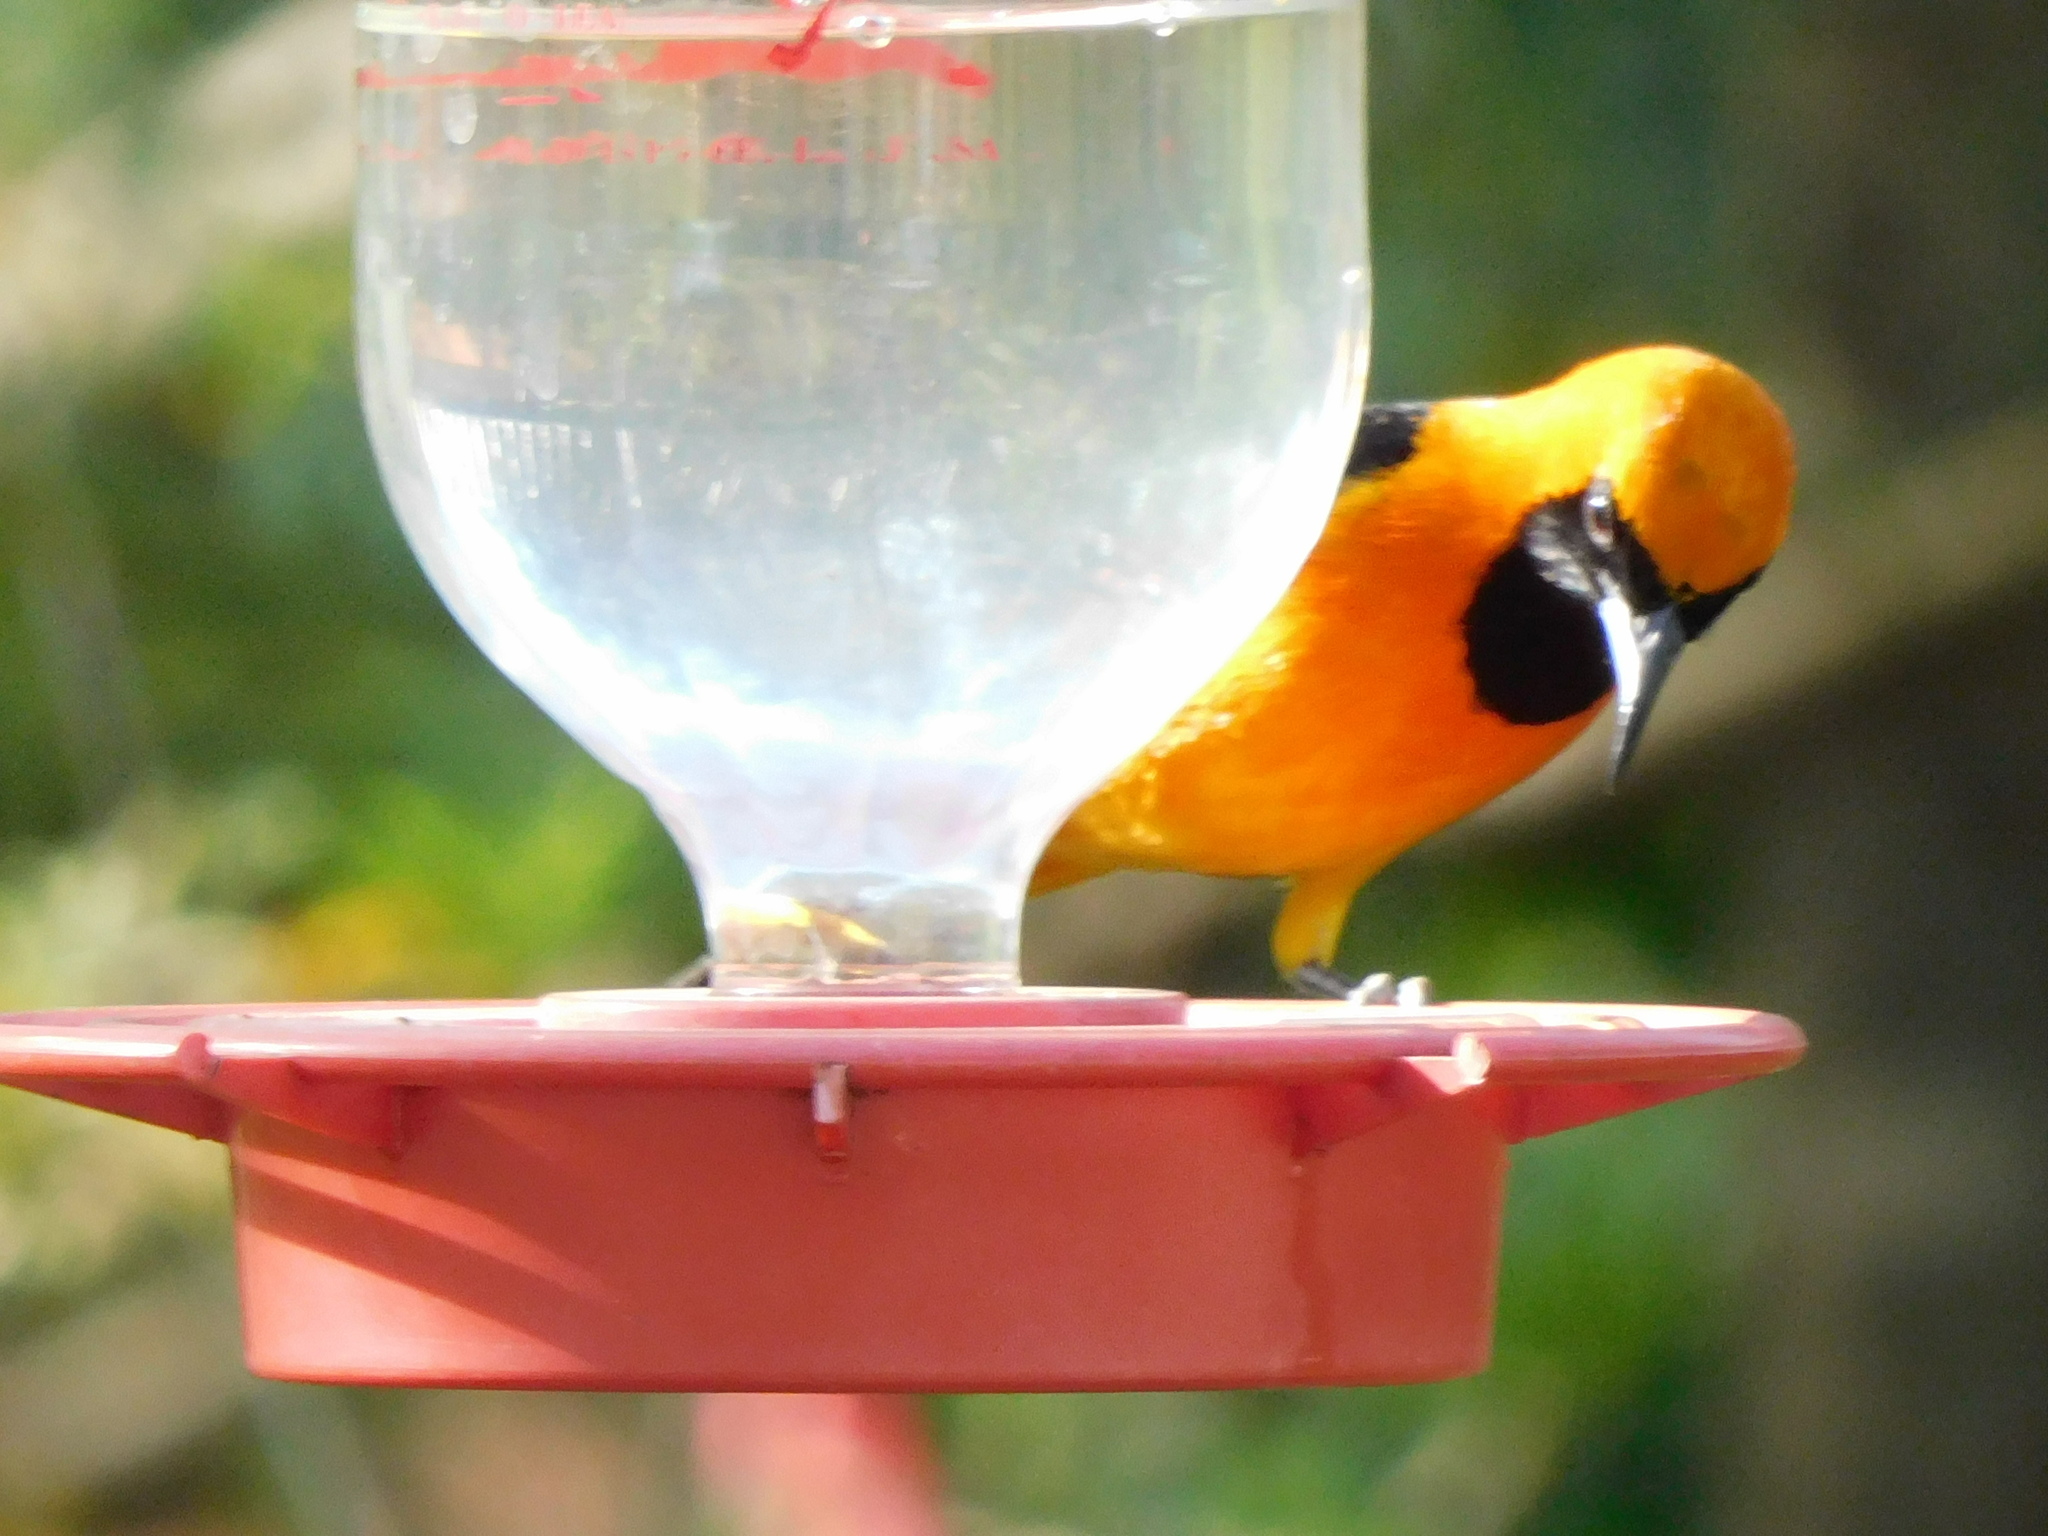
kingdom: Animalia
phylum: Chordata
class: Aves
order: Passeriformes
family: Icteridae
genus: Icterus
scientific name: Icterus cucullatus
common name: Hooded oriole
